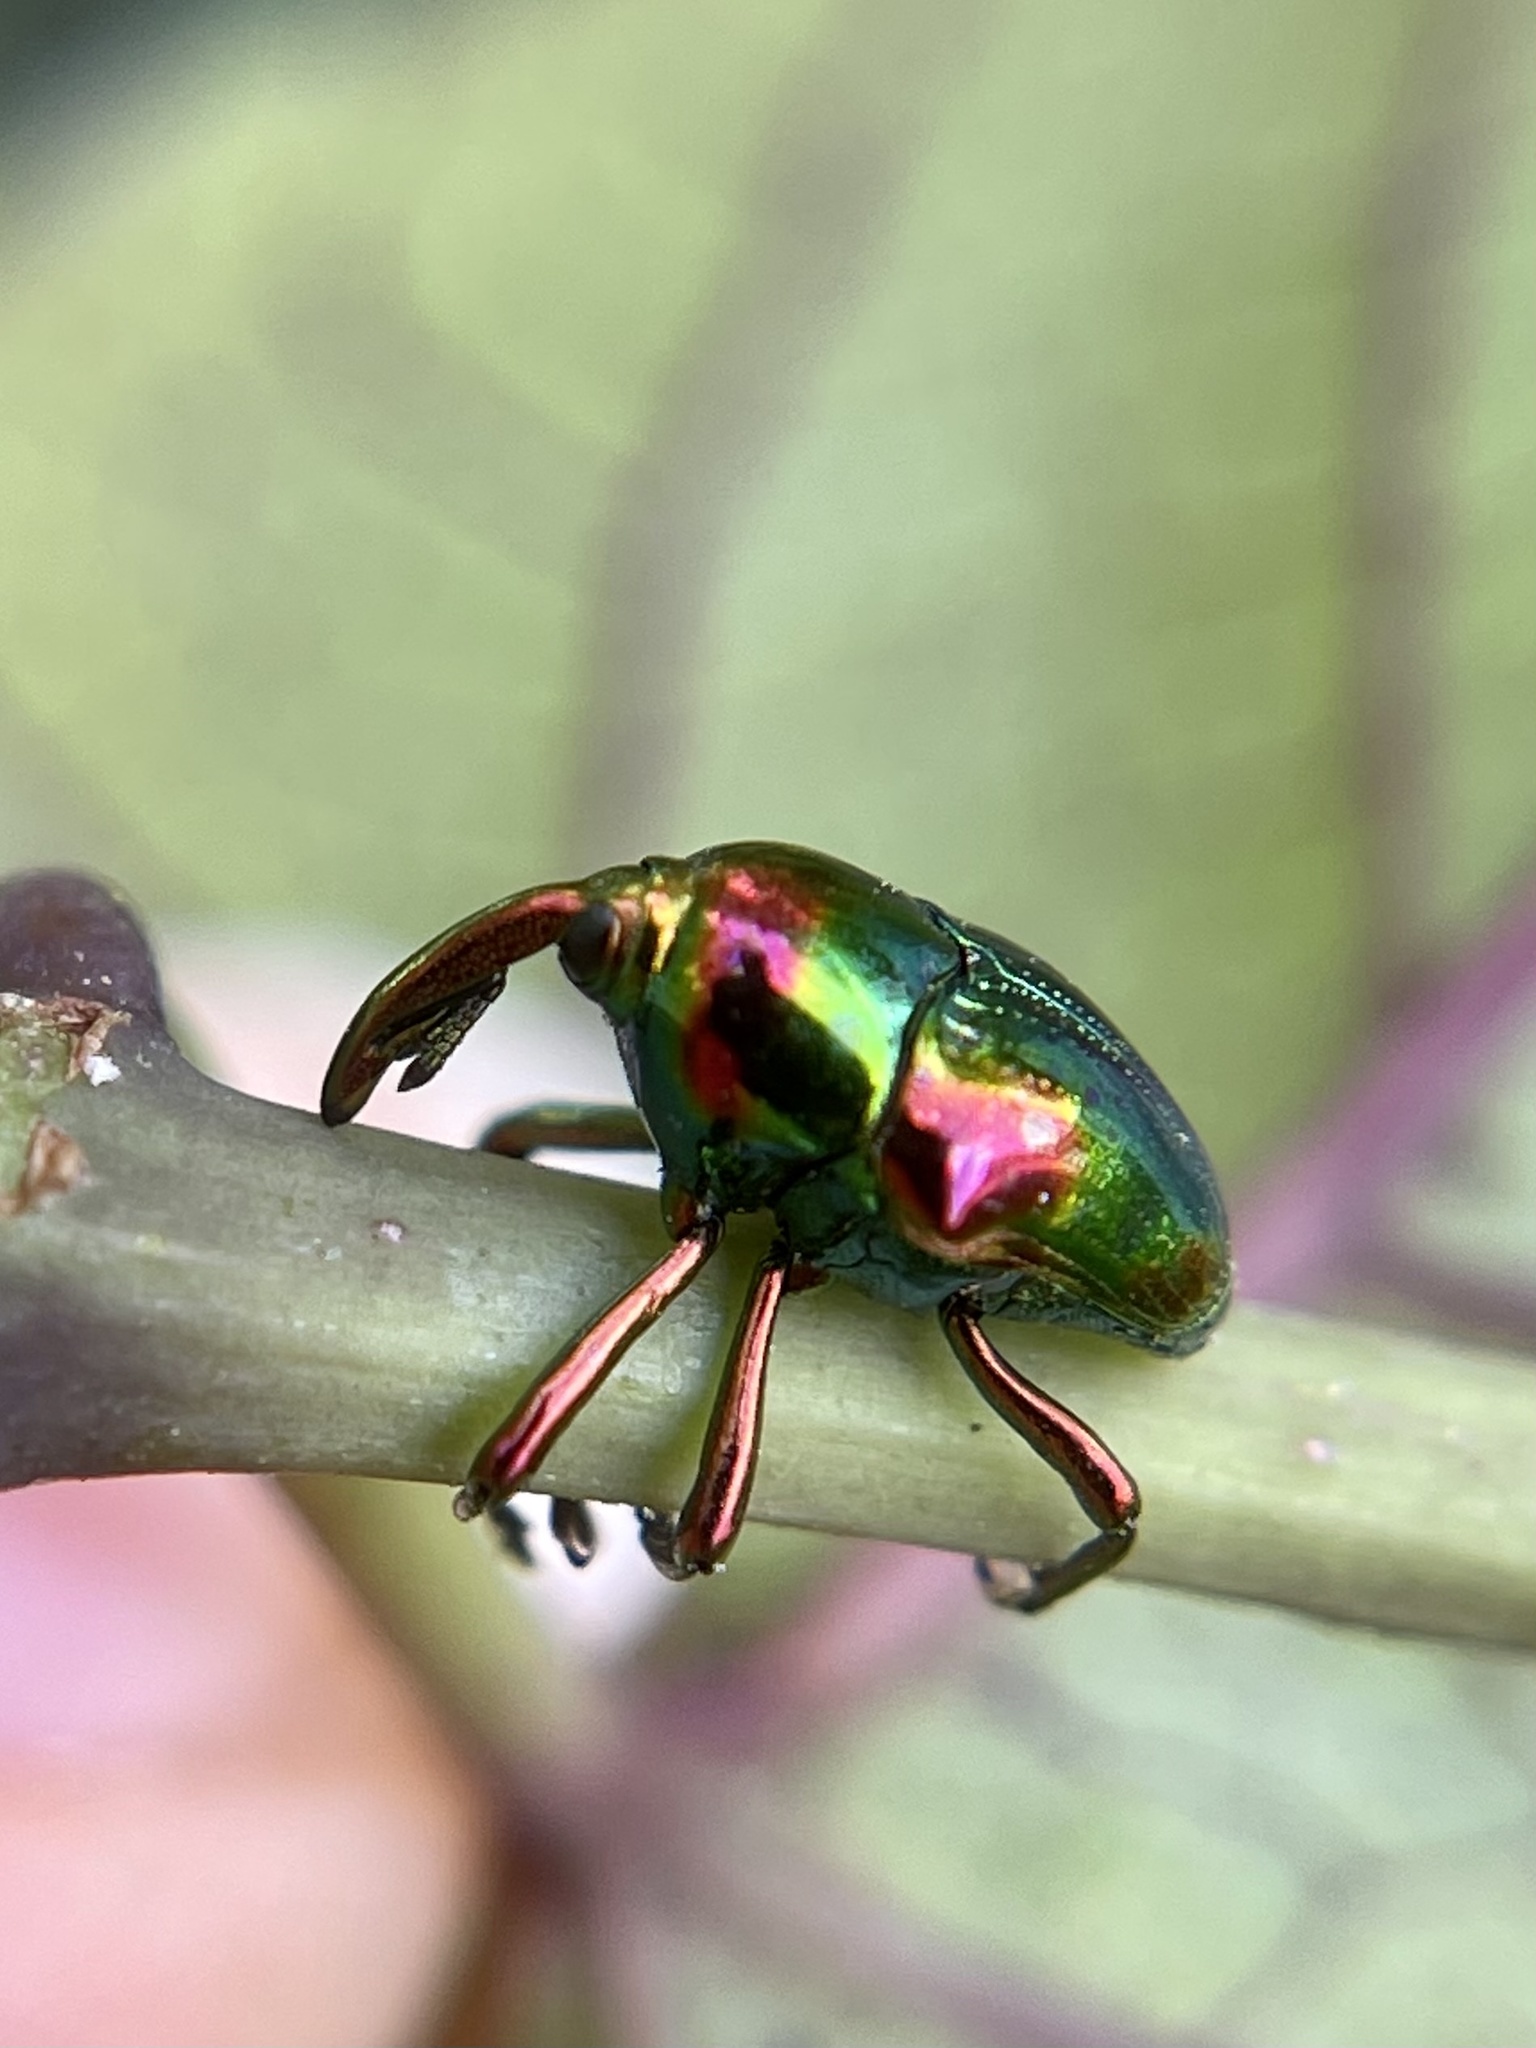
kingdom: Animalia
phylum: Arthropoda
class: Insecta
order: Coleoptera
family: Eurhynchidae
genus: Eurhinus
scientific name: Eurhinus magnificus
